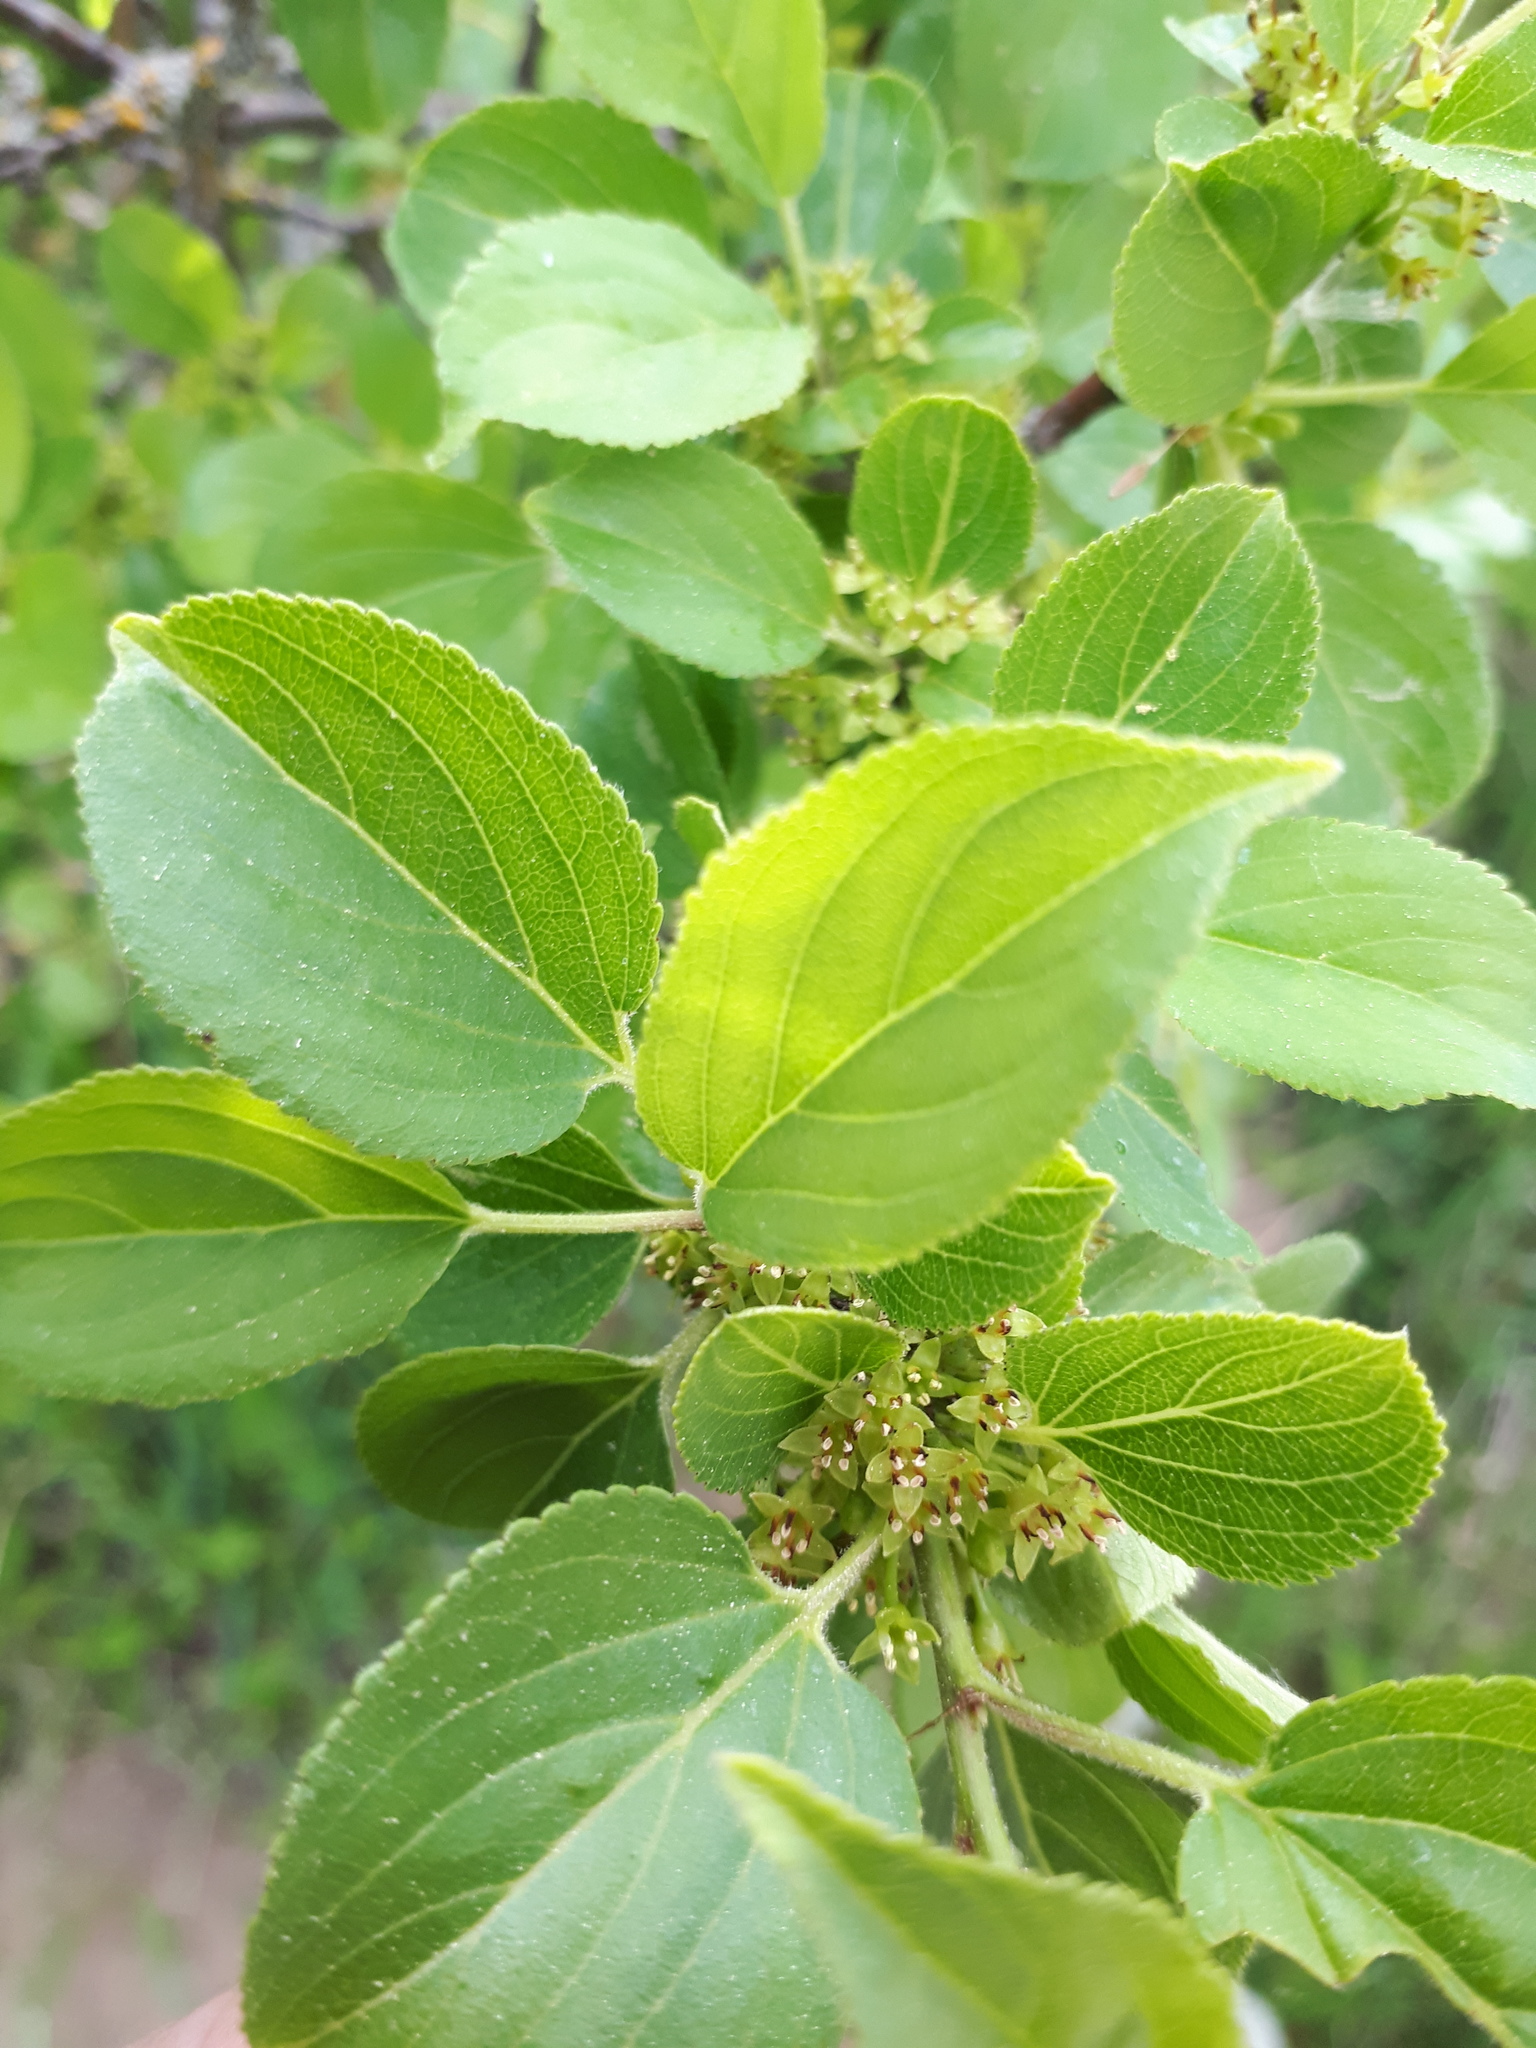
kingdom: Plantae
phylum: Tracheophyta
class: Magnoliopsida
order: Rosales
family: Rhamnaceae
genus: Rhamnus
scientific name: Rhamnus cathartica
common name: Common buckthorn
